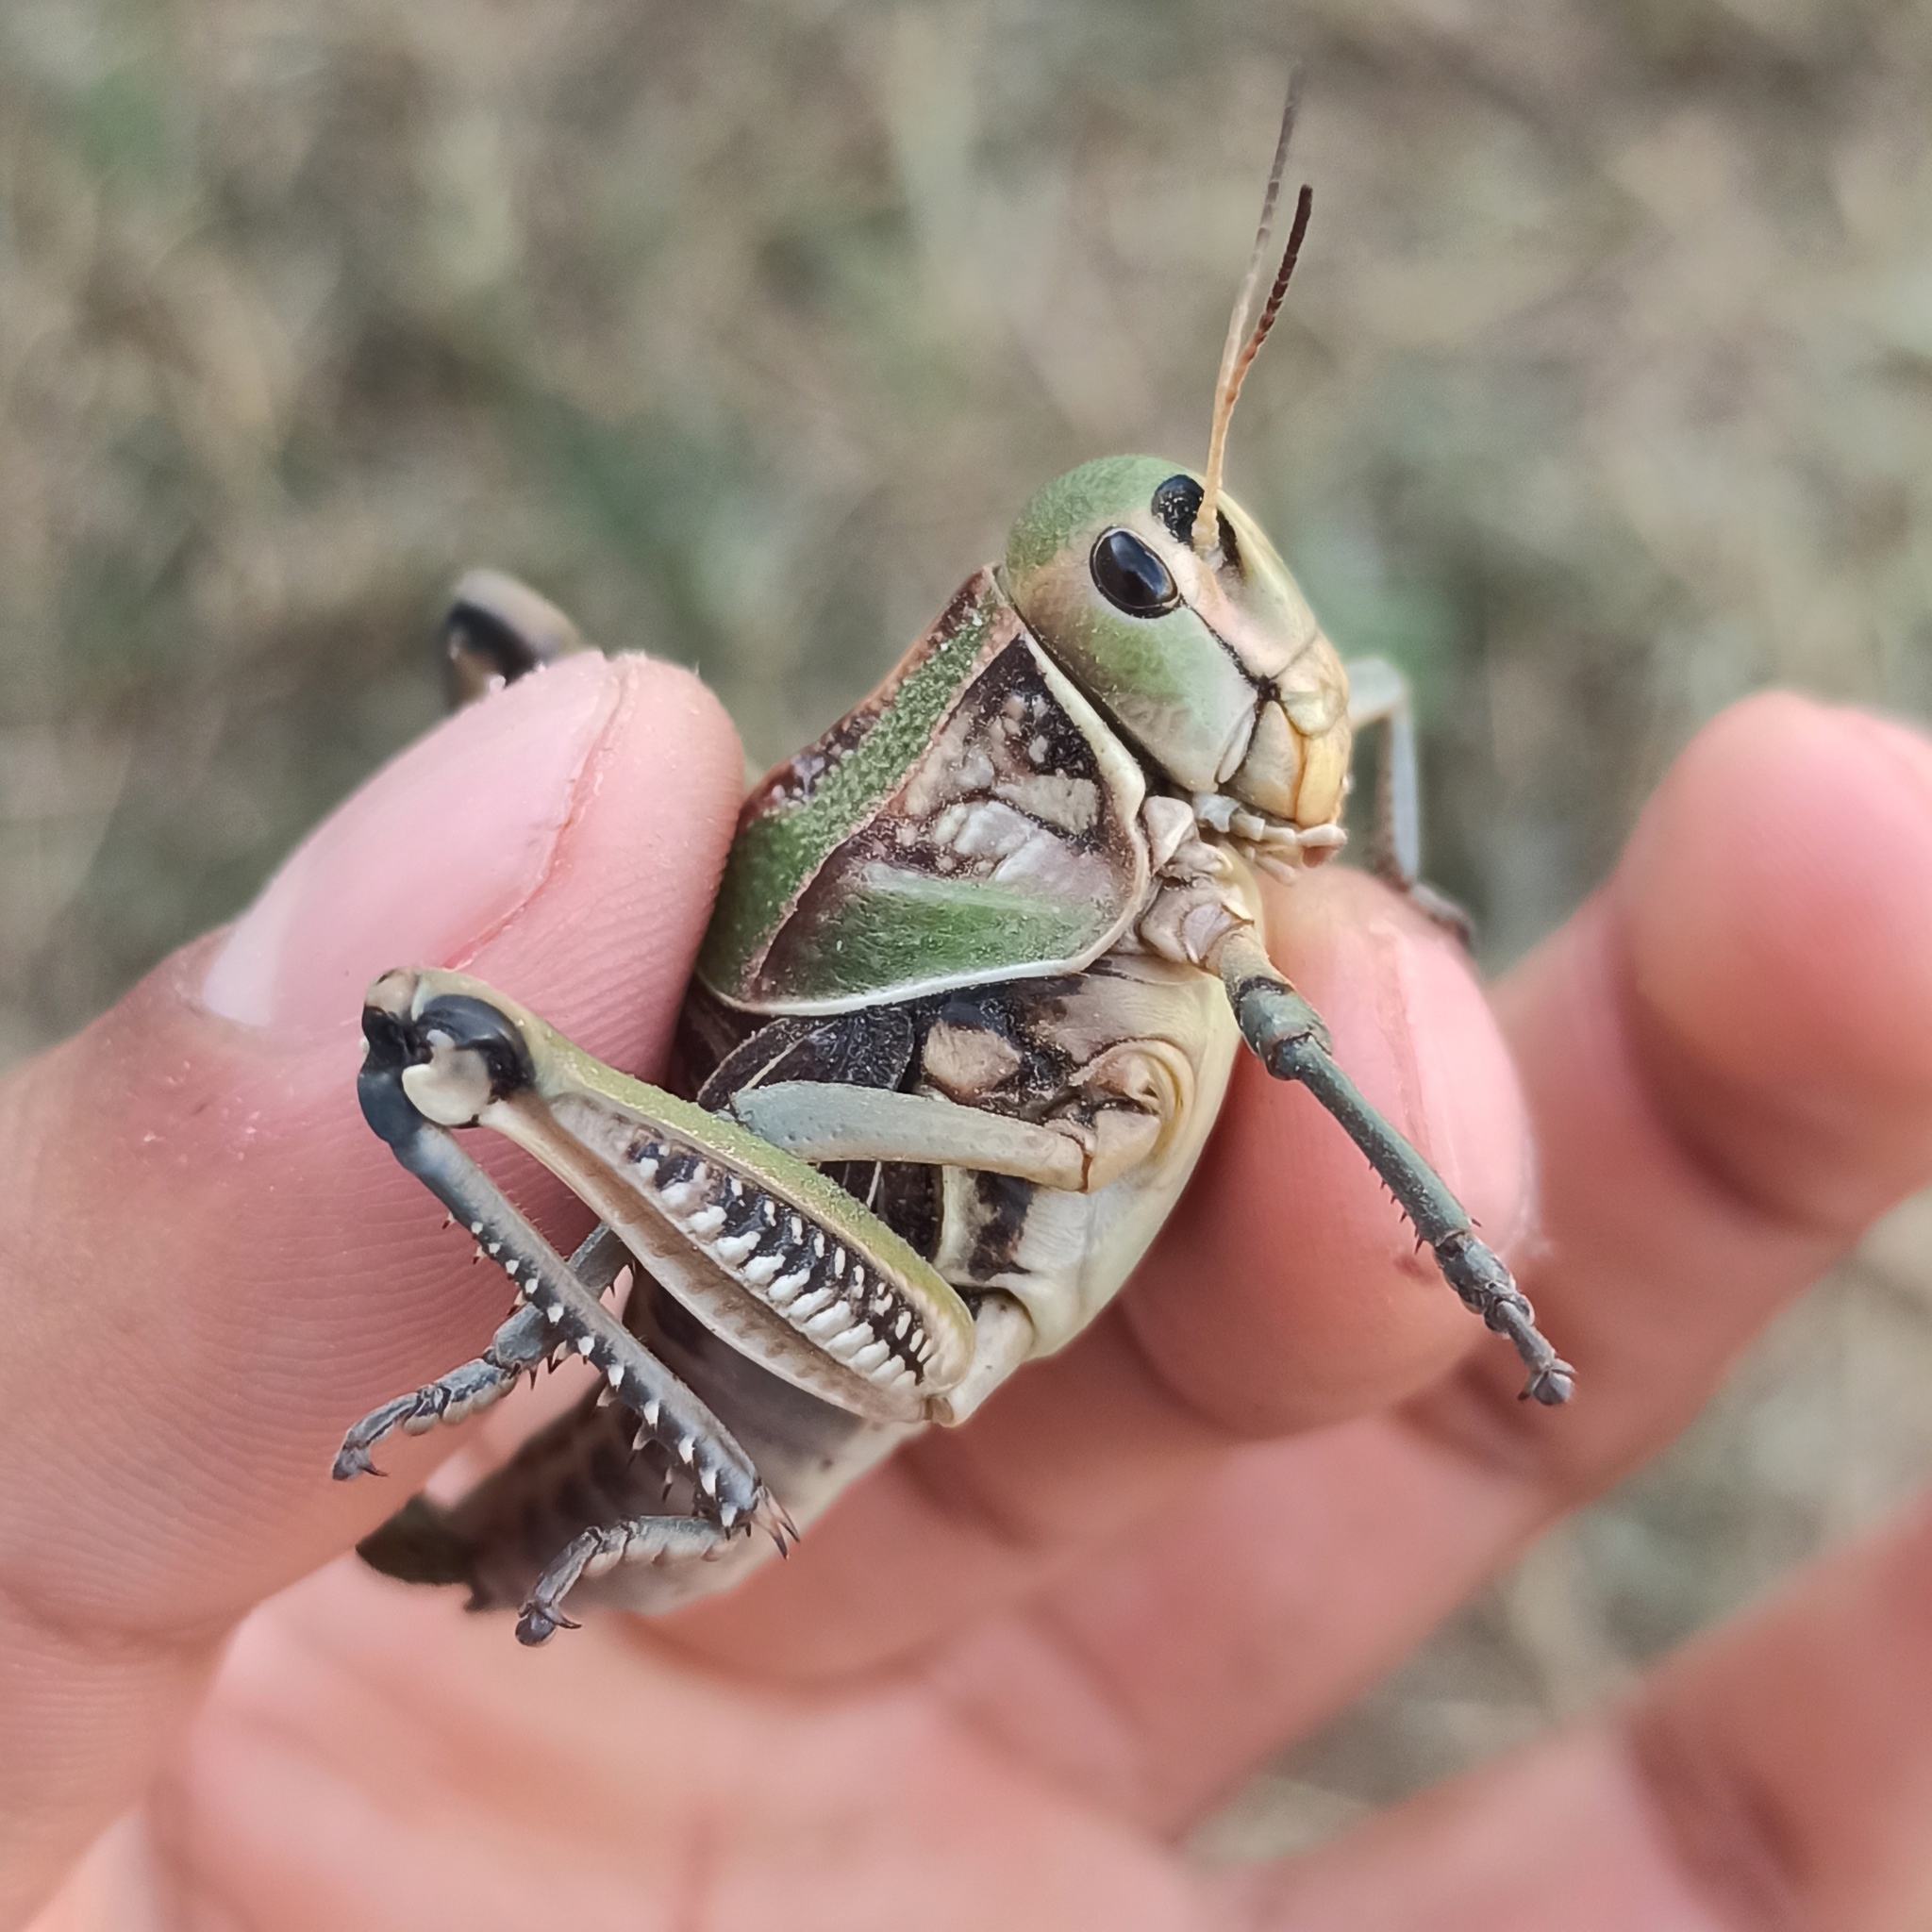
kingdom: Animalia
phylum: Arthropoda
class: Insecta
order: Orthoptera
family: Romaleidae
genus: Brachystola
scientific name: Brachystola mexicana
